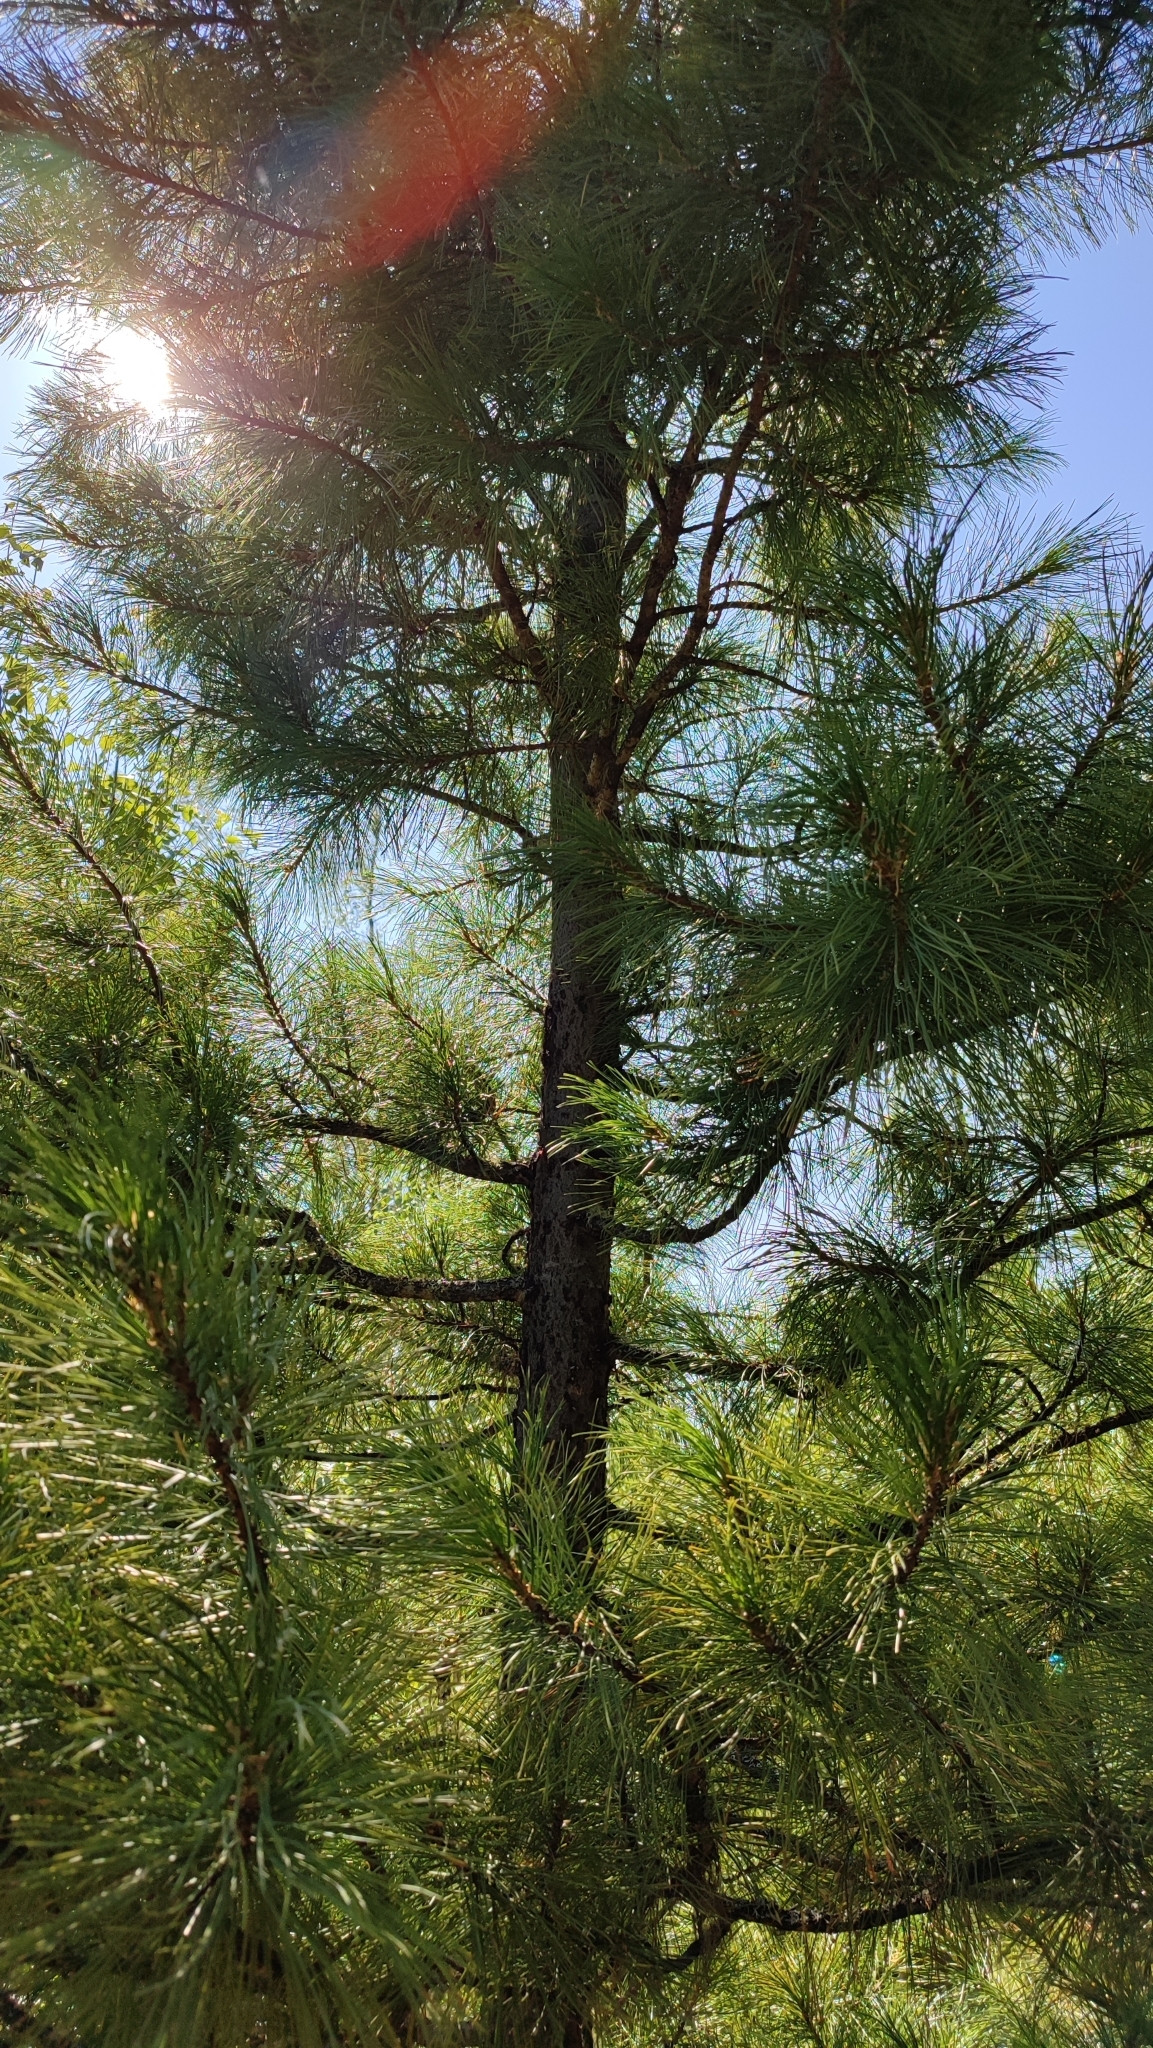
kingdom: Plantae
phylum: Tracheophyta
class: Pinopsida
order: Pinales
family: Pinaceae
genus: Pinus
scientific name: Pinus sibirica
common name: Siberian pine
